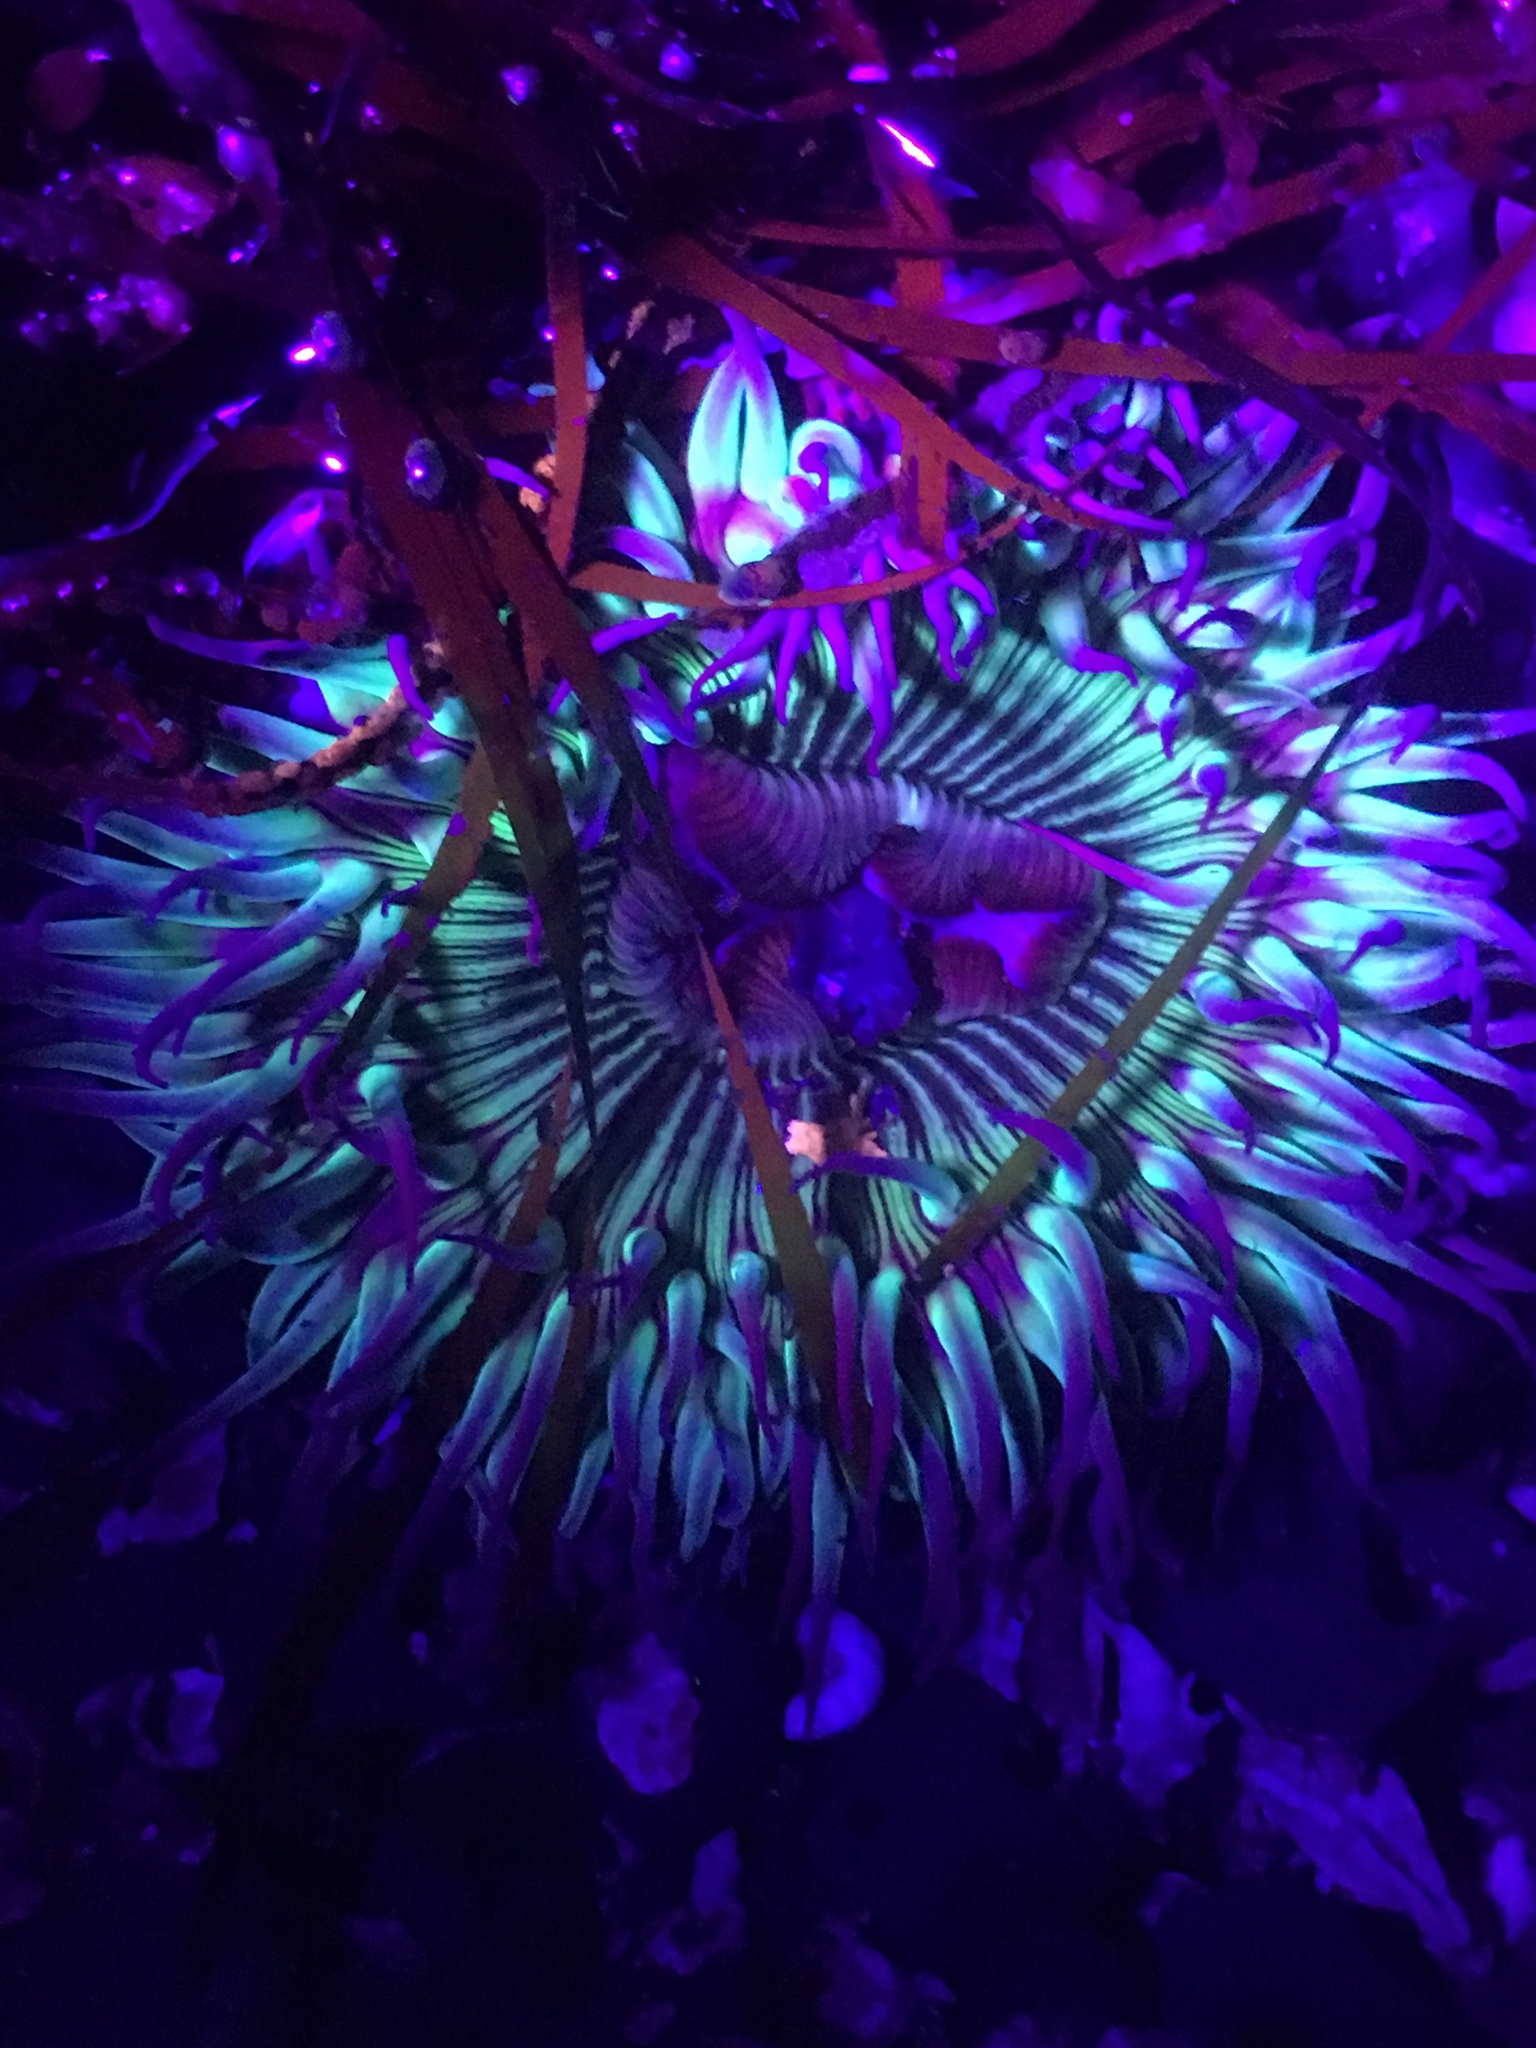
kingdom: Animalia
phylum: Cnidaria
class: Anthozoa
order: Actiniaria
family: Actiniidae
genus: Anthopleura
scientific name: Anthopleura sola
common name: Sun anemone
